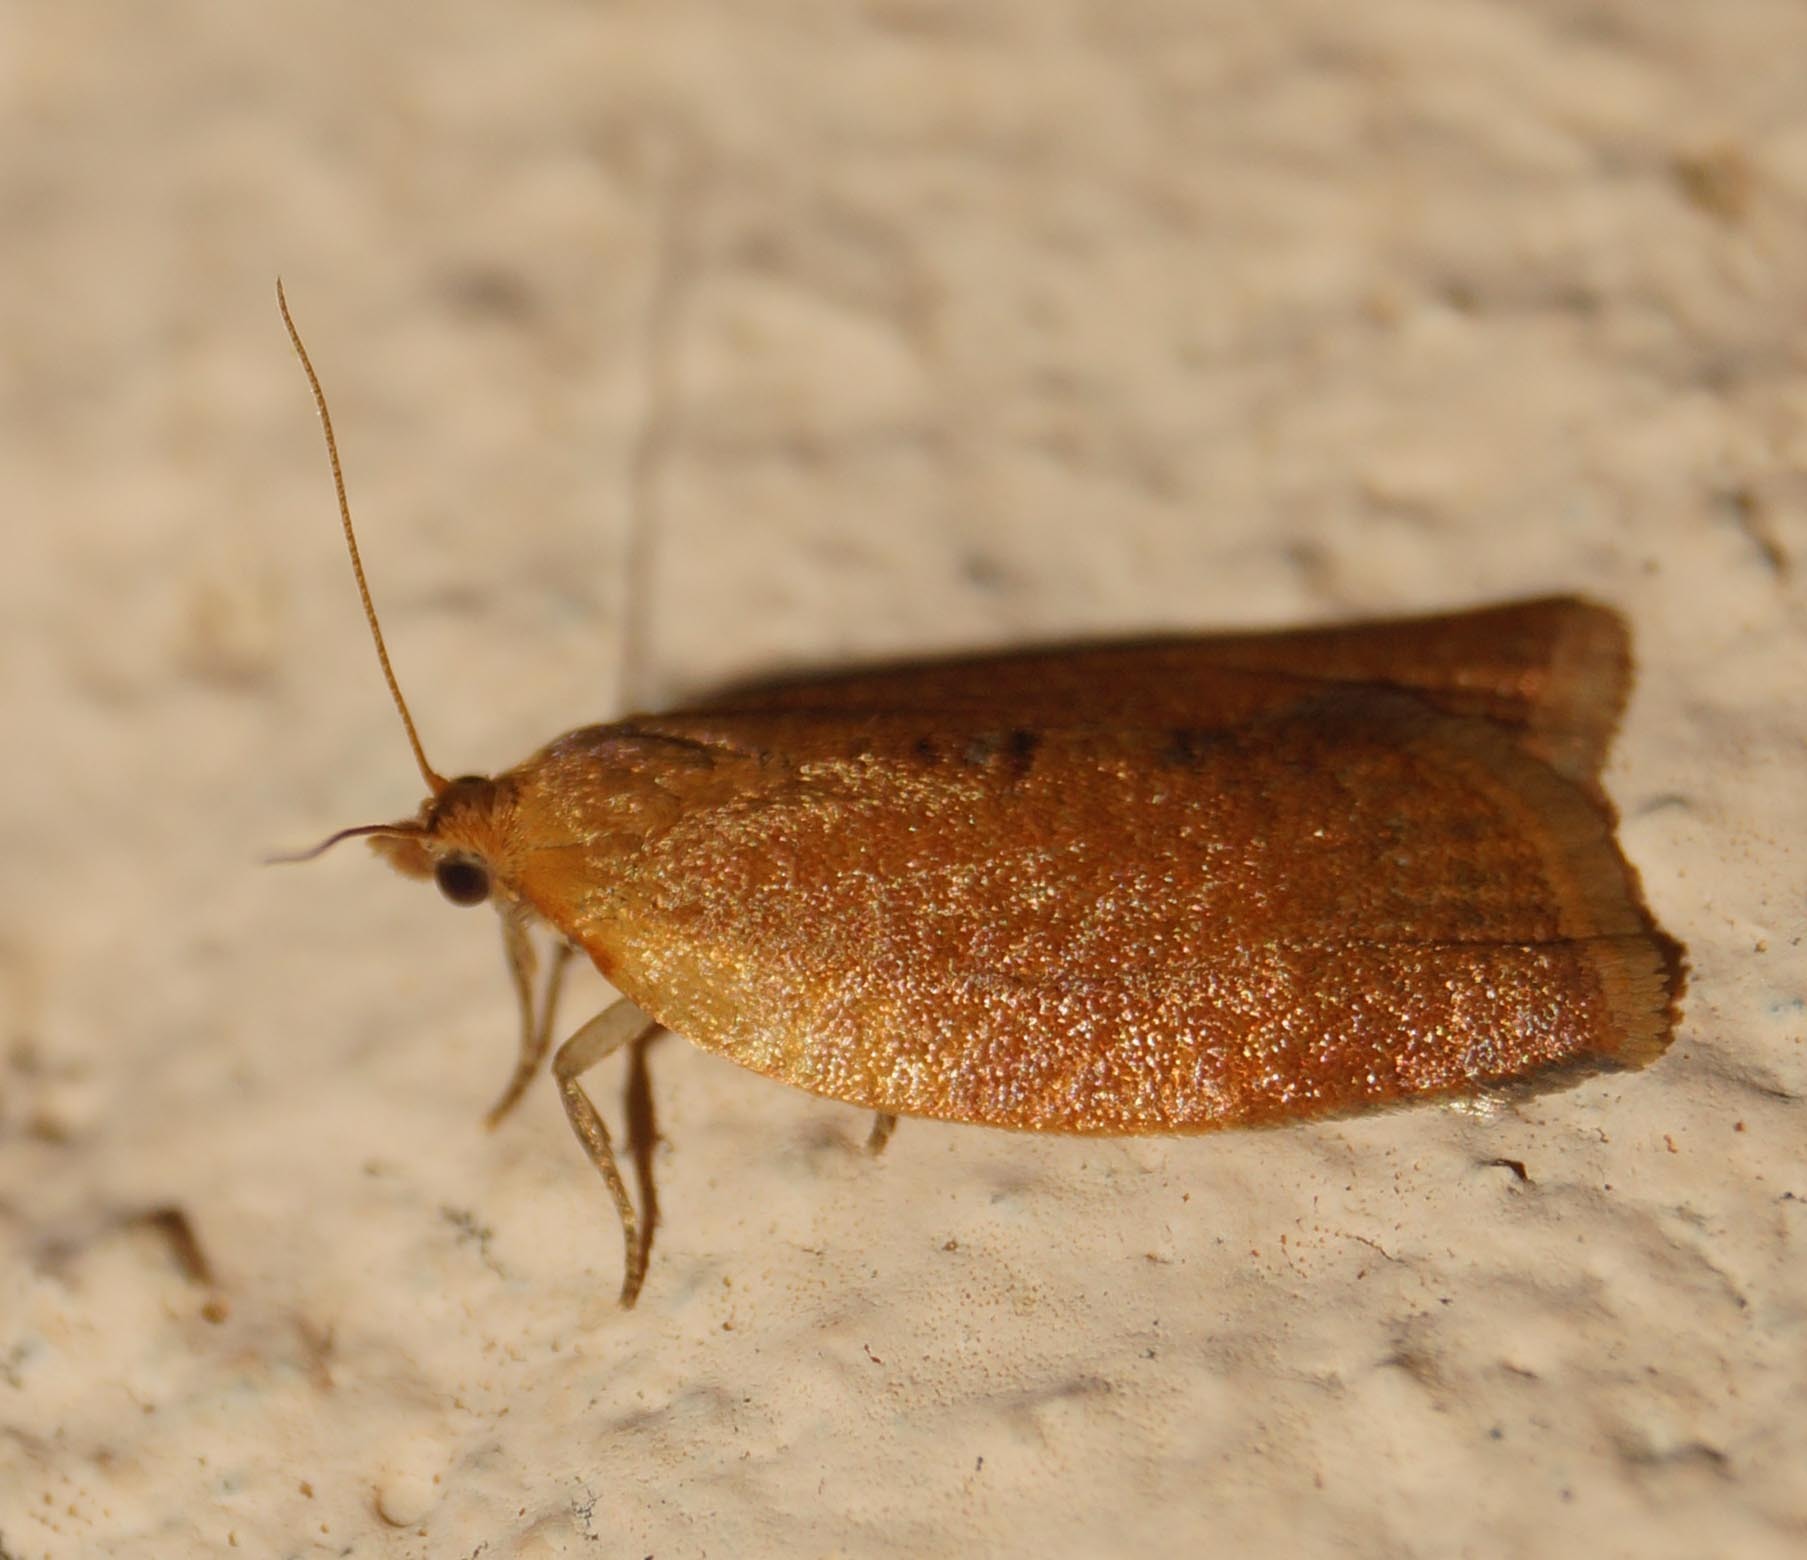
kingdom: Animalia
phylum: Arthropoda
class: Insecta
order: Lepidoptera
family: Tortricidae
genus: Clepsis
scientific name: Clepsis consimilana
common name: Privet tortrix
